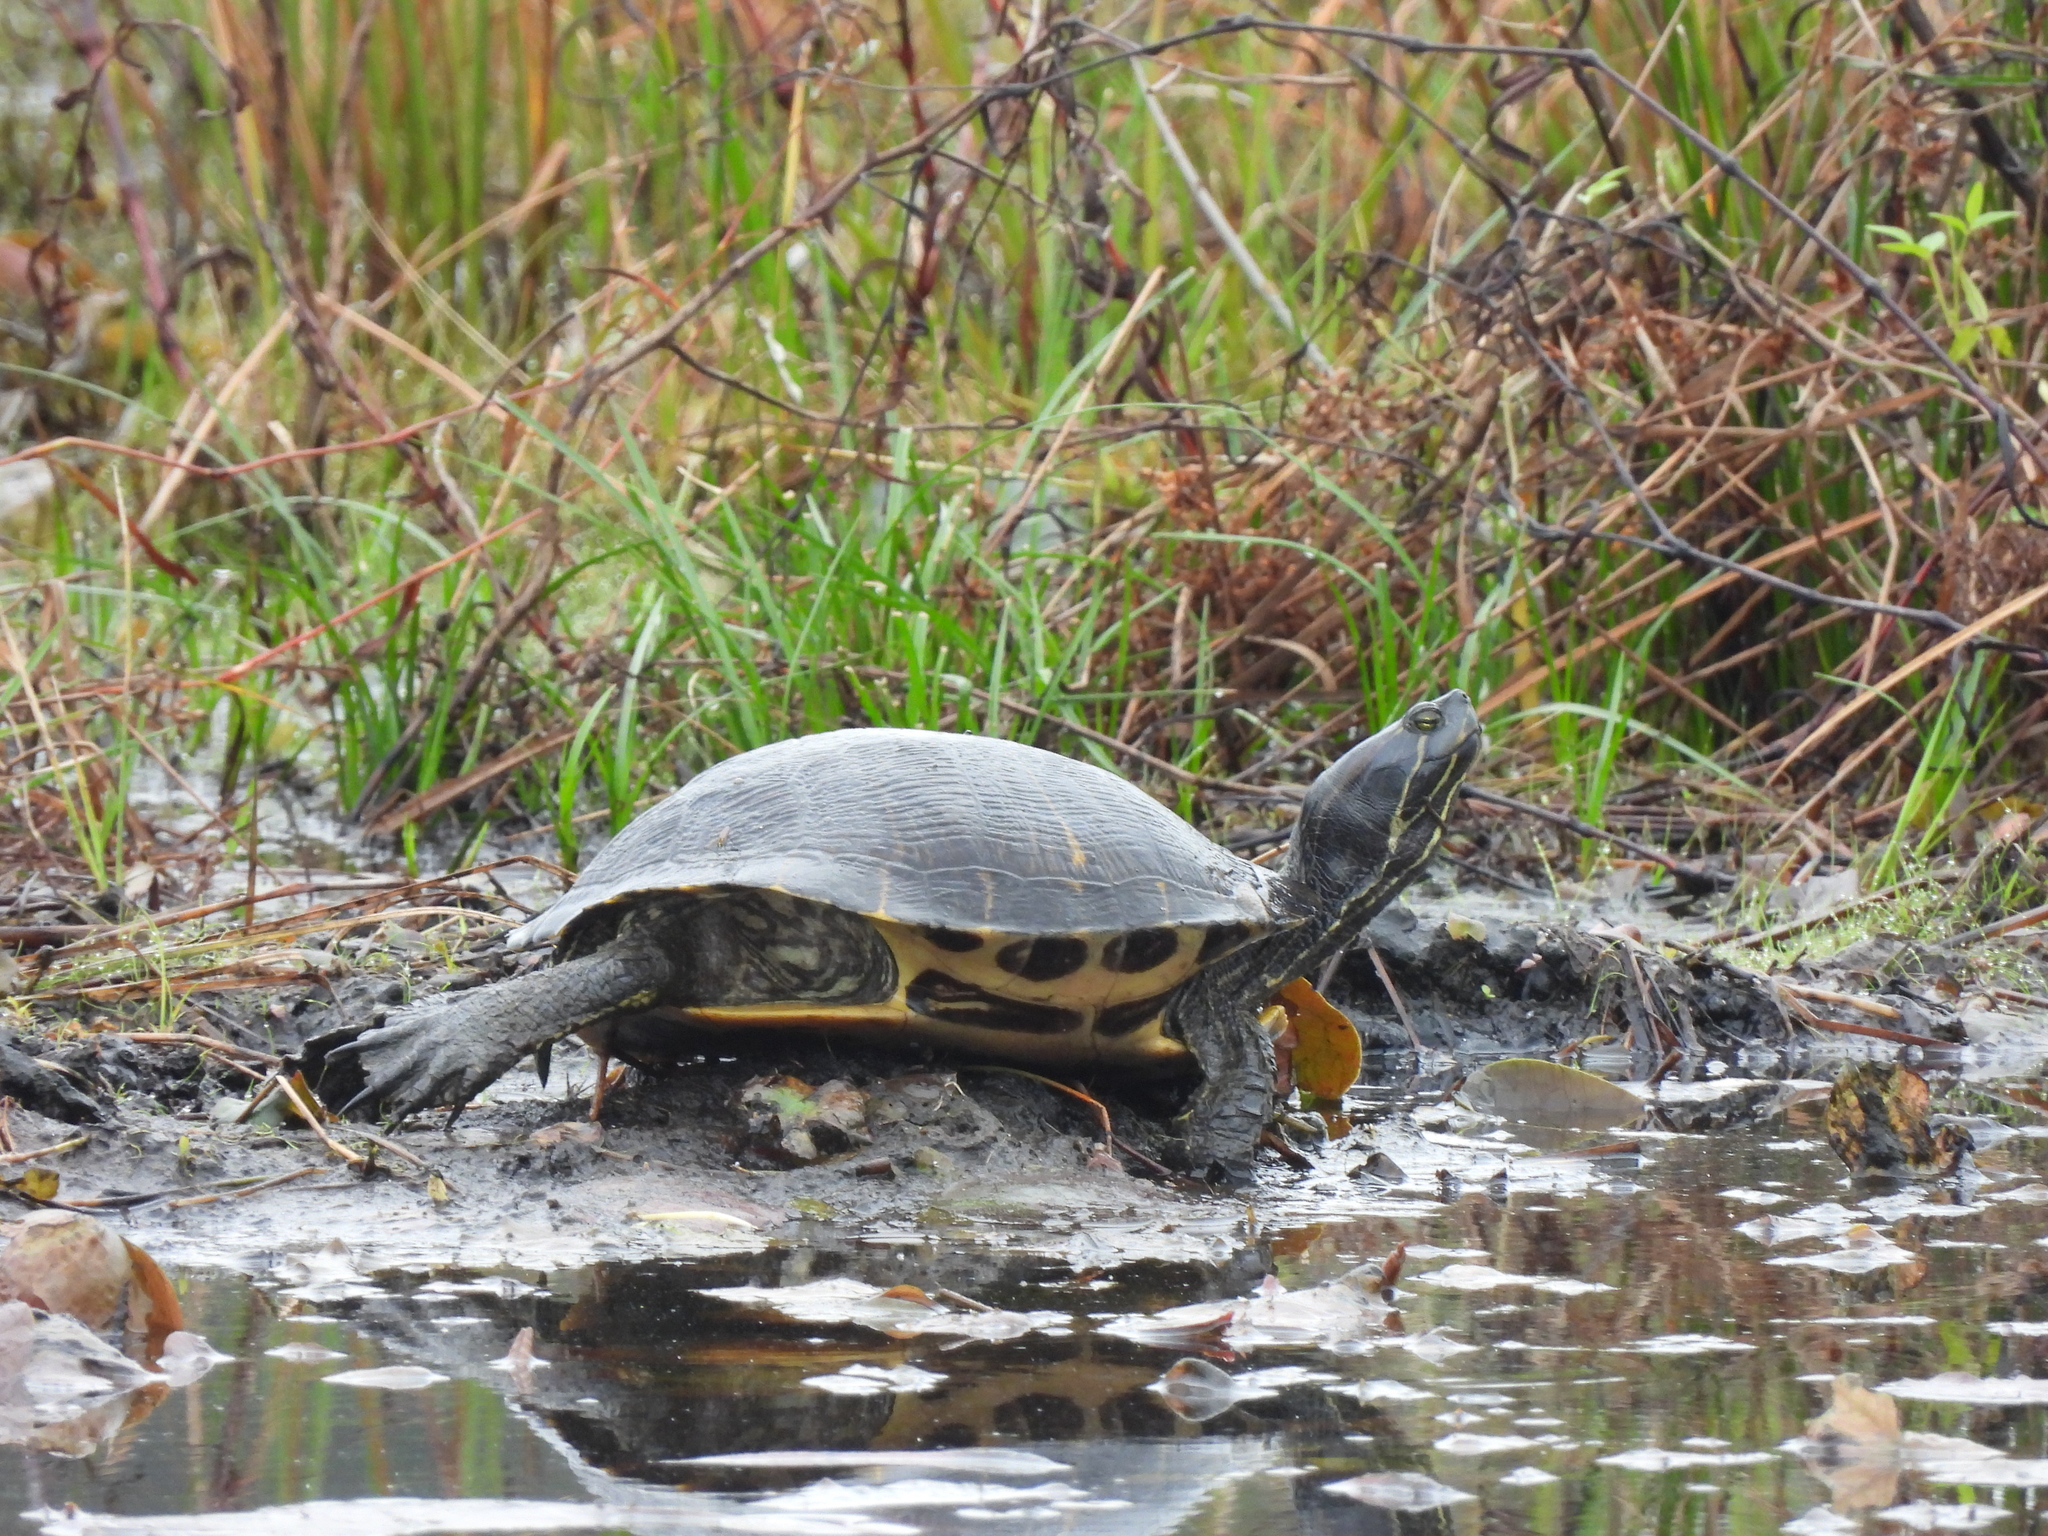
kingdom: Animalia
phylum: Chordata
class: Testudines
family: Emydidae
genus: Trachemys
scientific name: Trachemys scripta
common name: Slider
